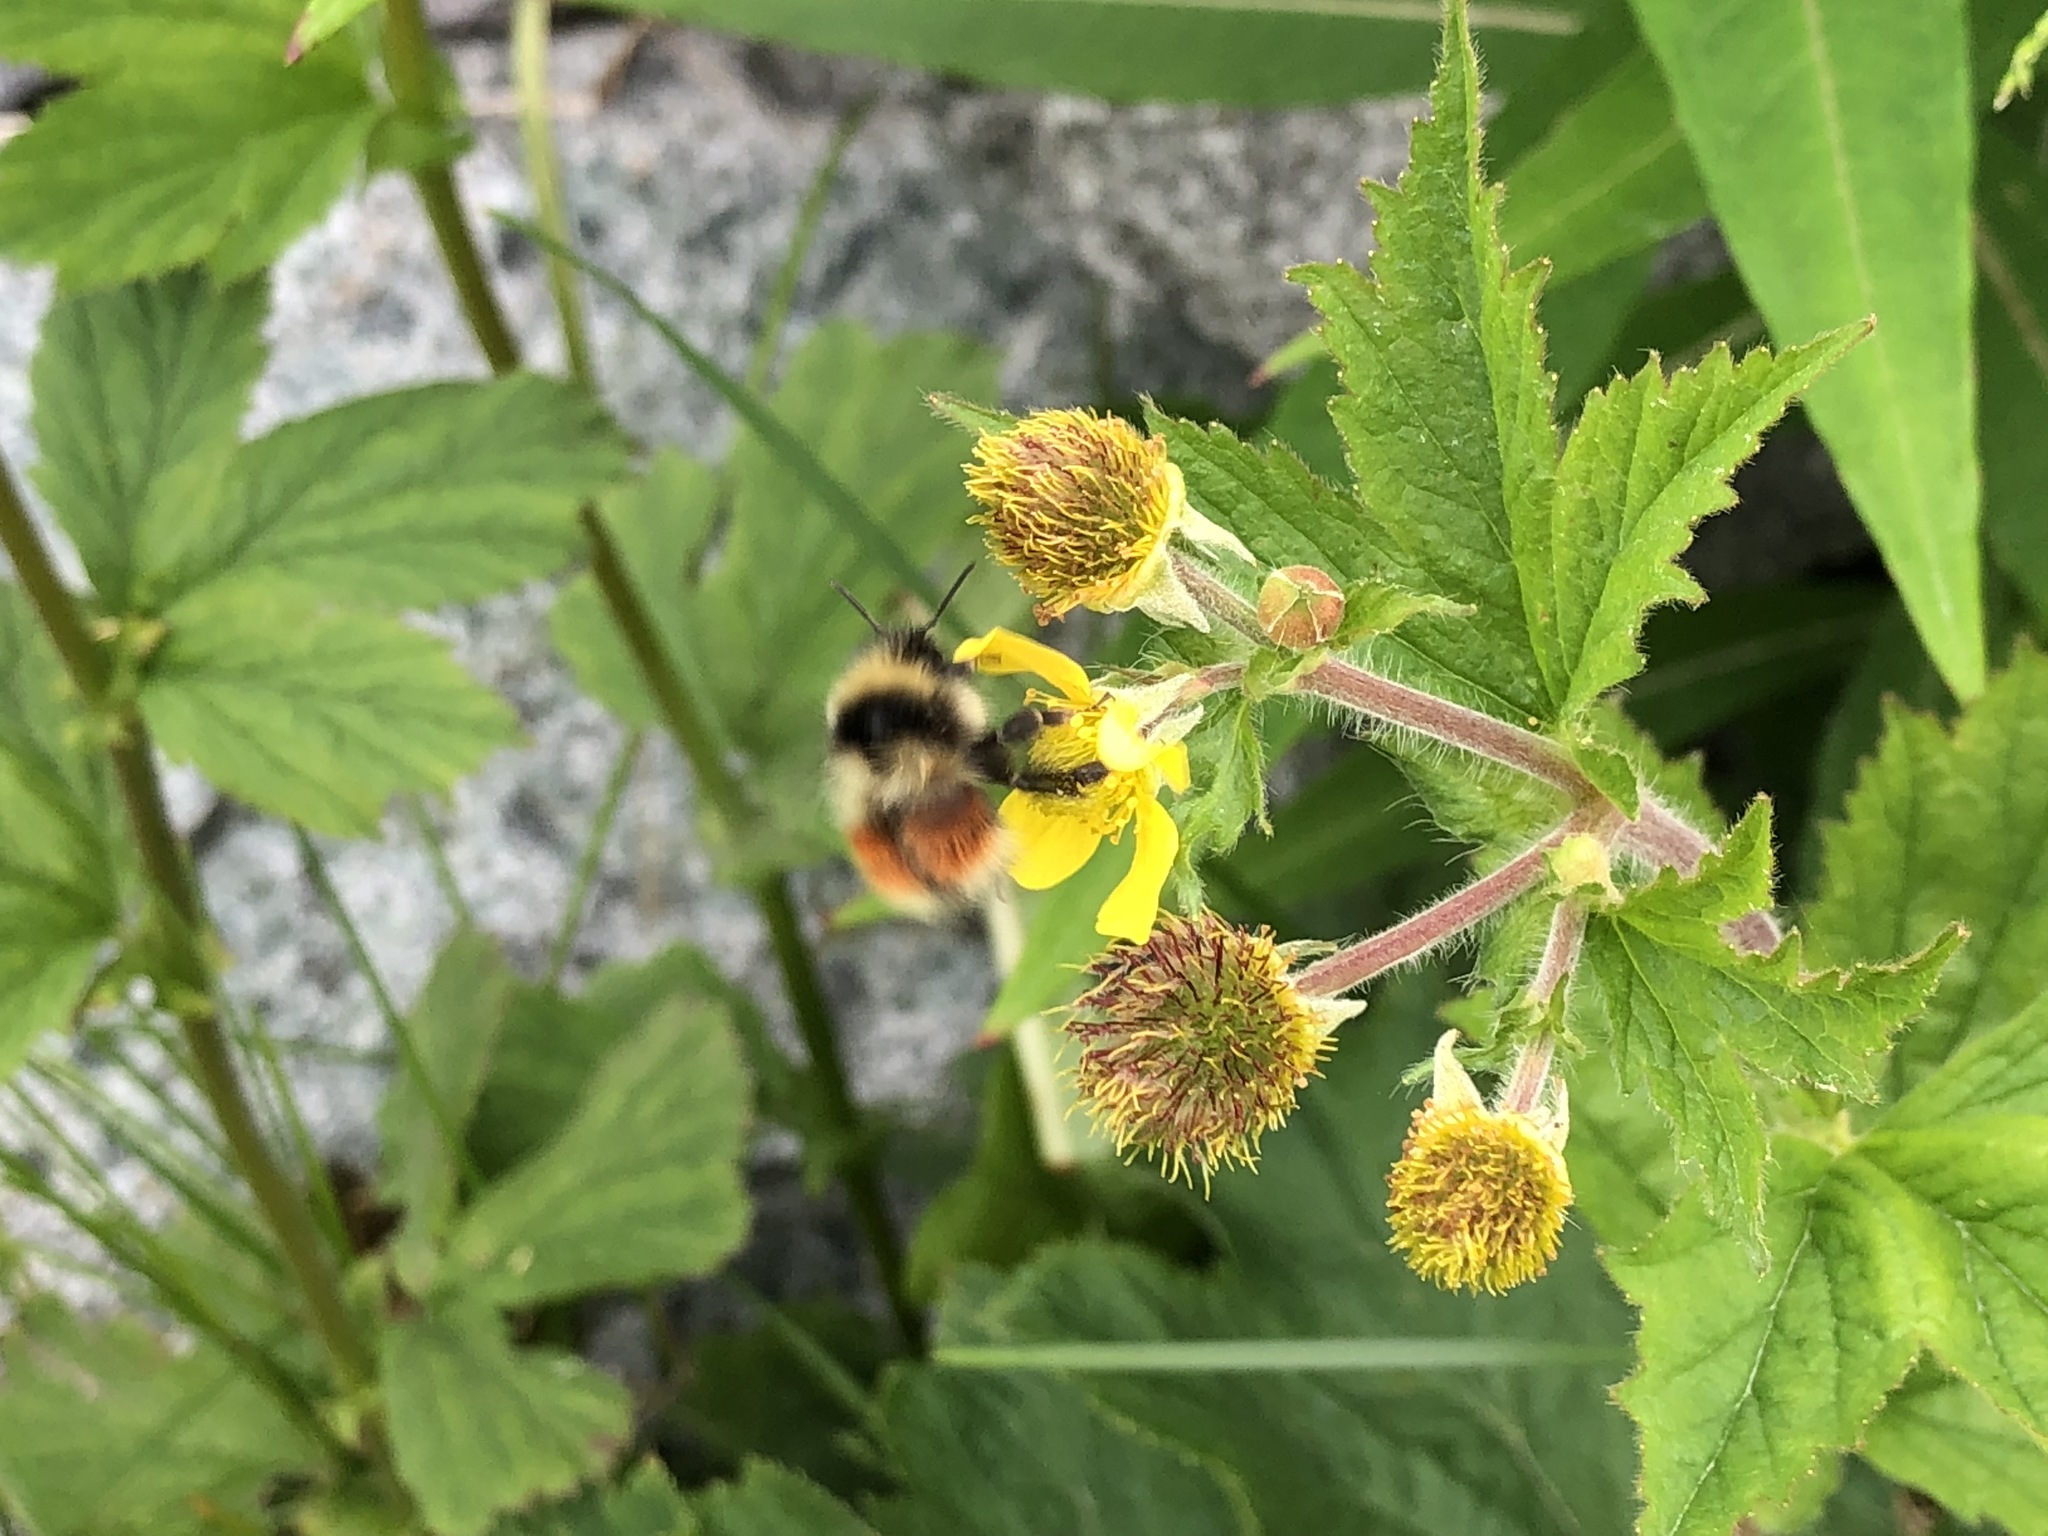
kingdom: Animalia
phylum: Arthropoda
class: Insecta
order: Hymenoptera
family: Apidae
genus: Bombus
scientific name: Bombus sylvicola
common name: Forest bumble bee
